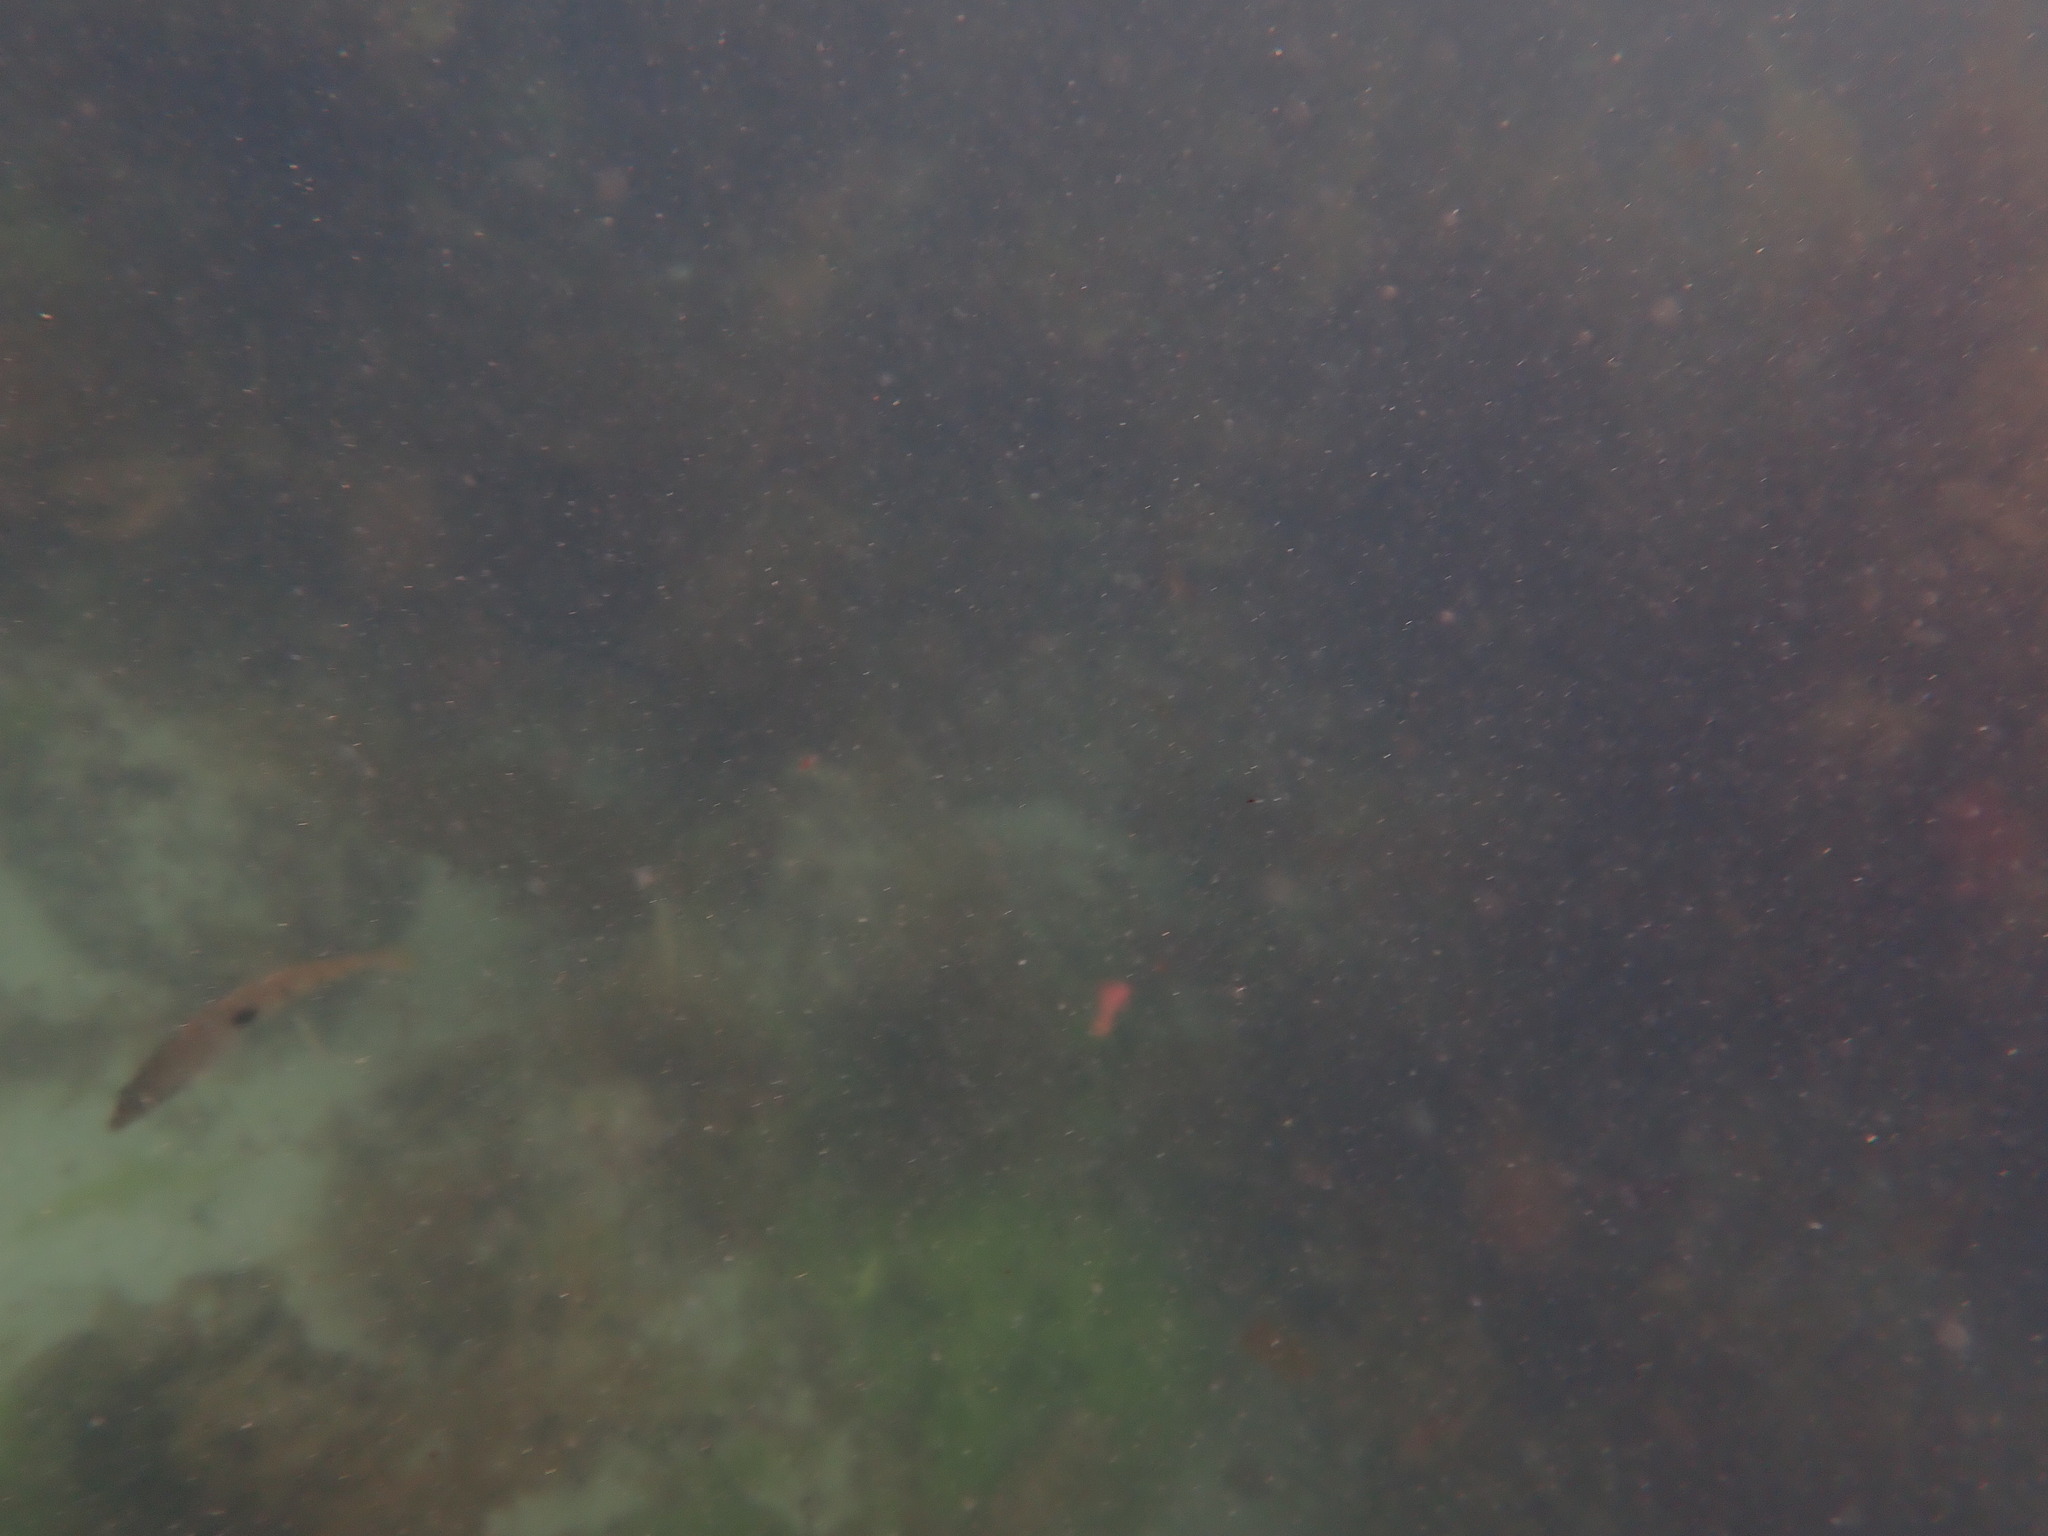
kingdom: Animalia
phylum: Chordata
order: Perciformes
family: Labridae
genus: Notolabrus
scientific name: Notolabrus celidotus
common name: Spotty
